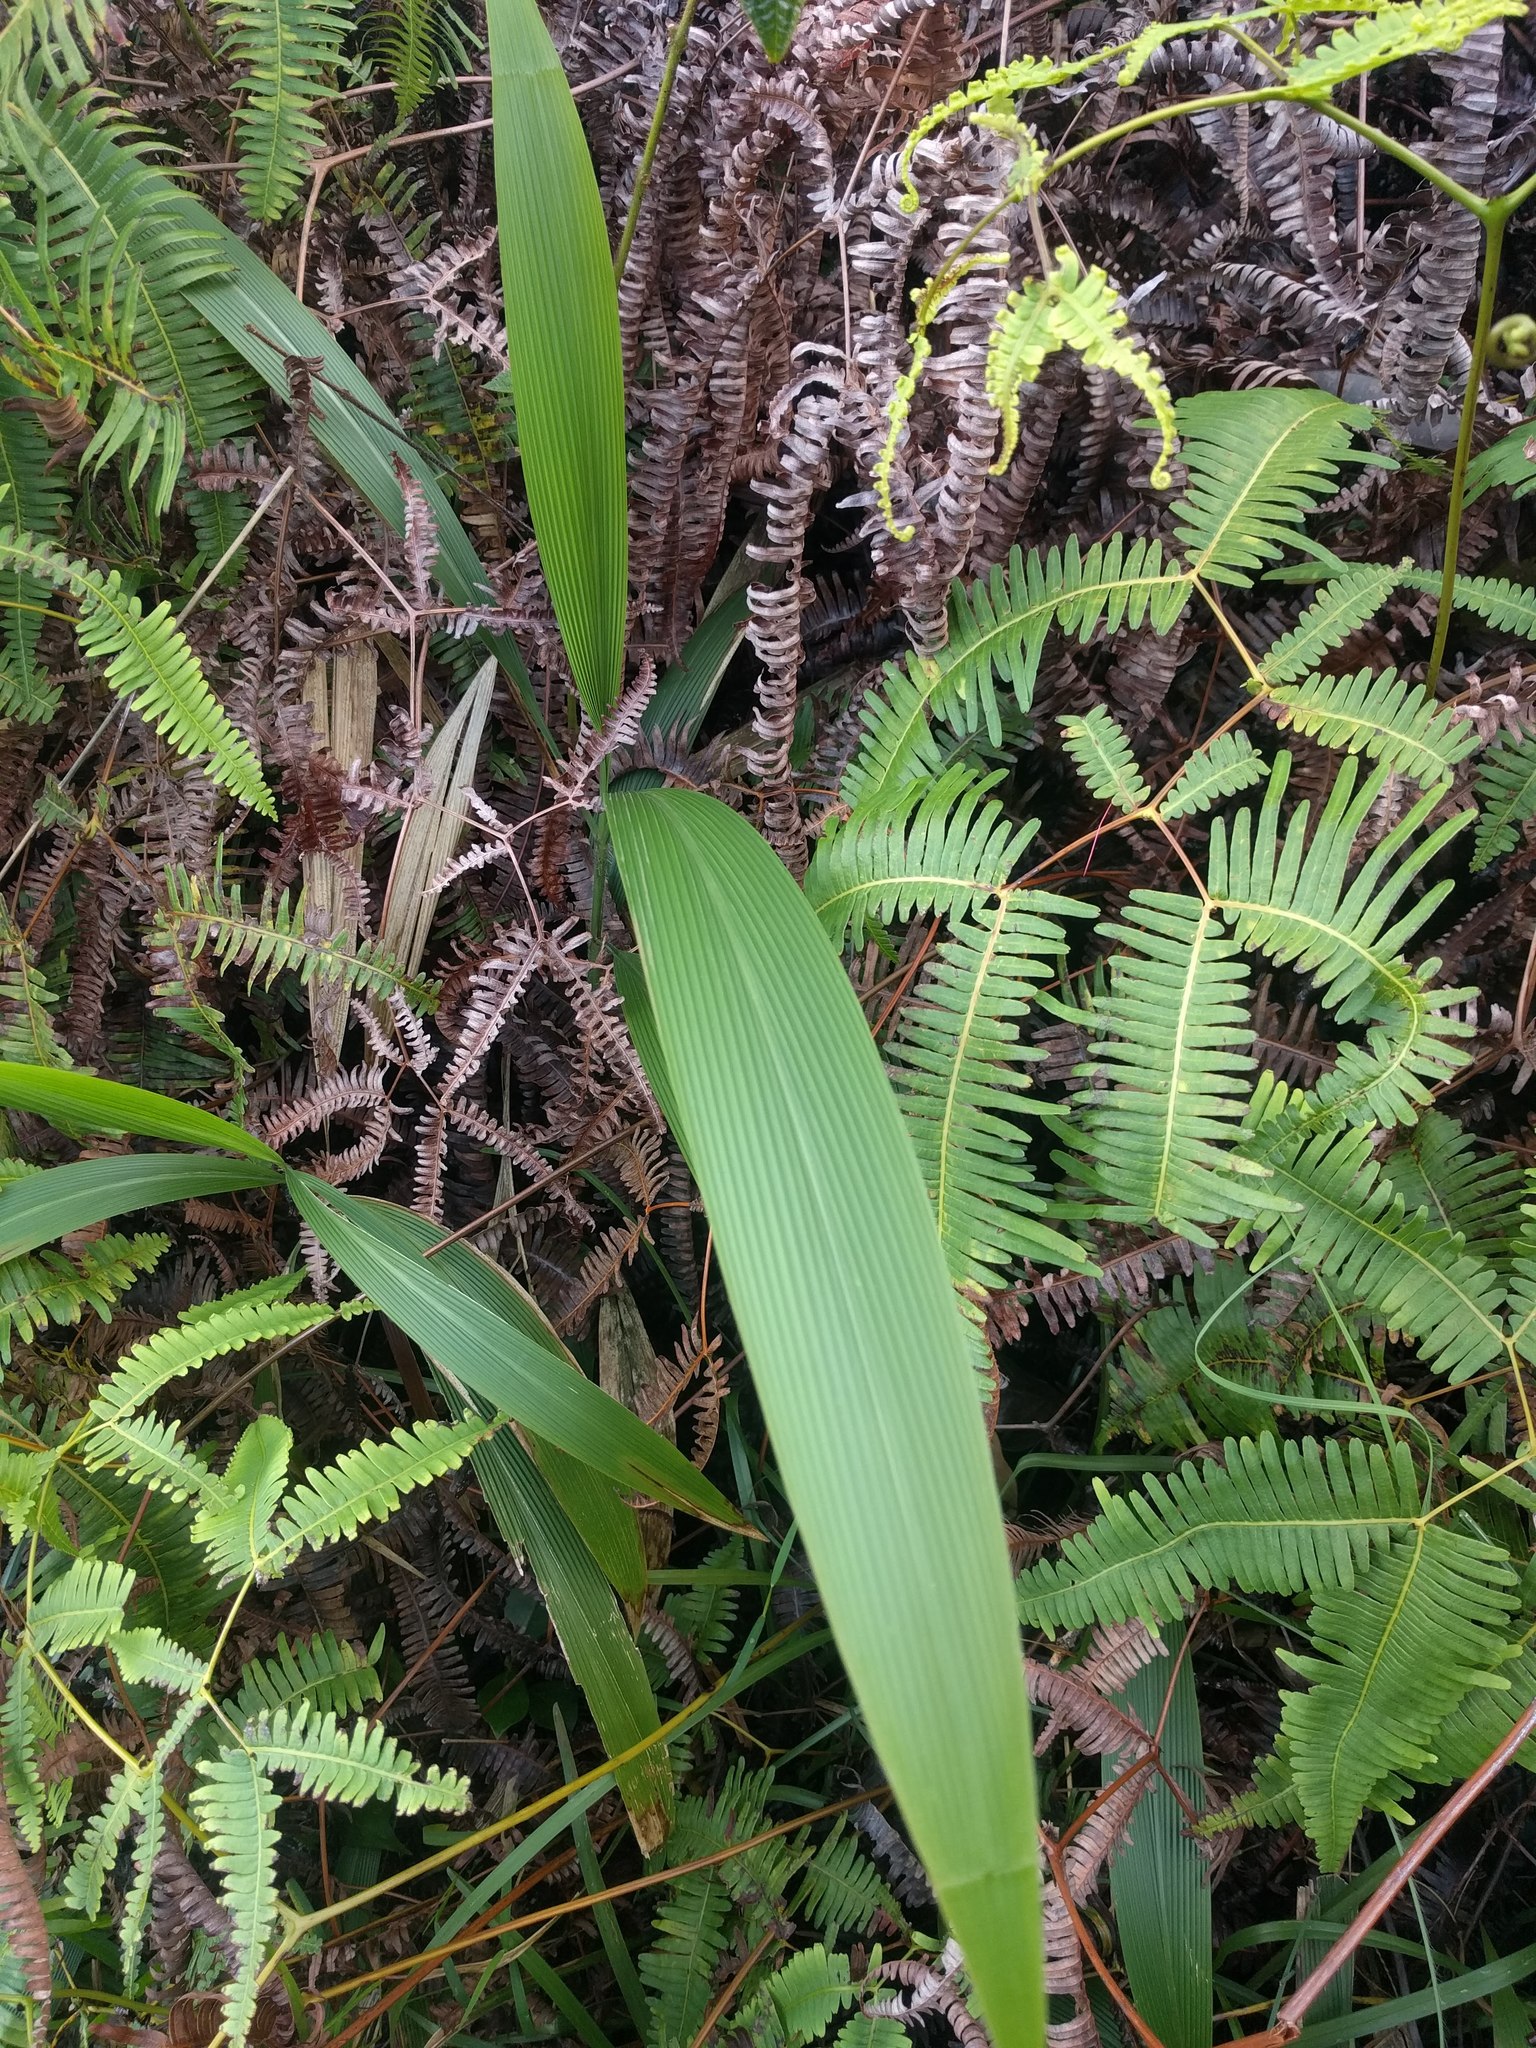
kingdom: Plantae
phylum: Tracheophyta
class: Liliopsida
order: Poales
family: Poaceae
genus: Setaria
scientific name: Setaria palmifolia
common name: Broadleaved bristlegrass
